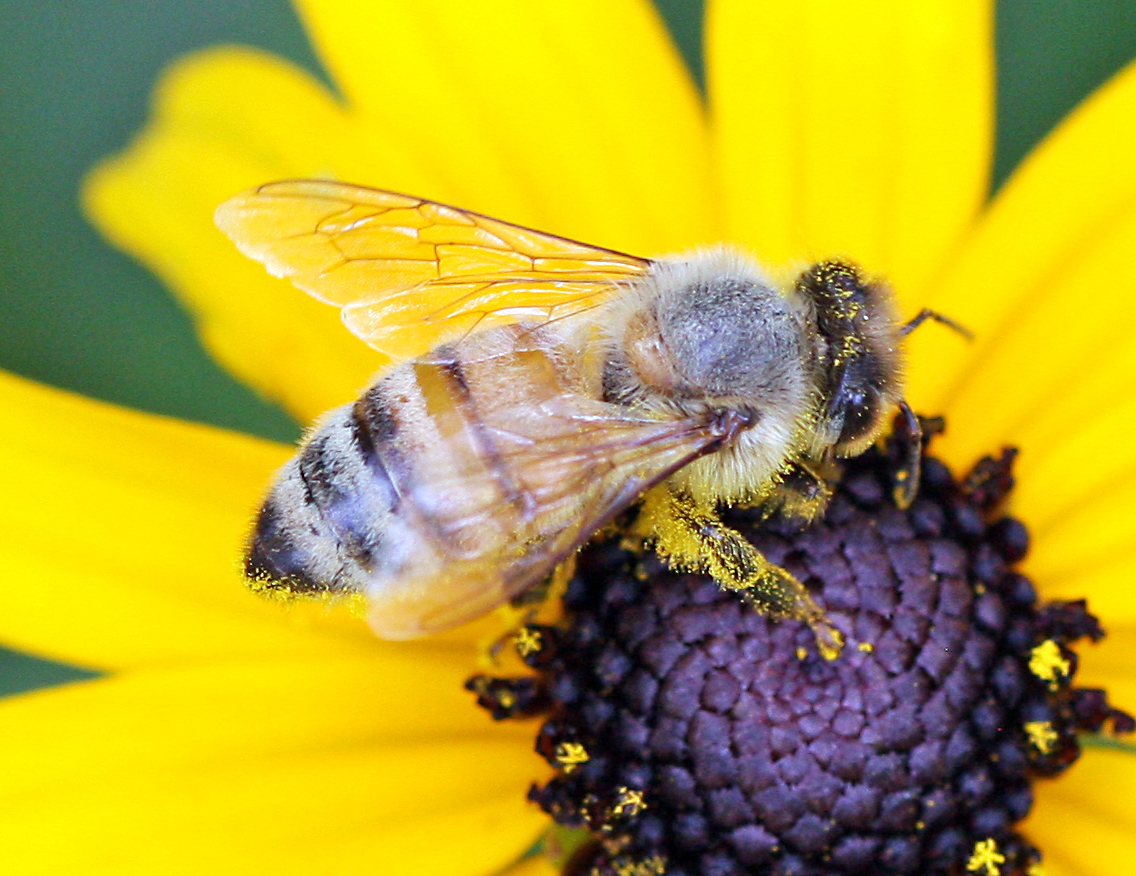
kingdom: Animalia
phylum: Arthropoda
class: Insecta
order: Hymenoptera
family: Apidae
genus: Apis
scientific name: Apis mellifera
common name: Honey bee
